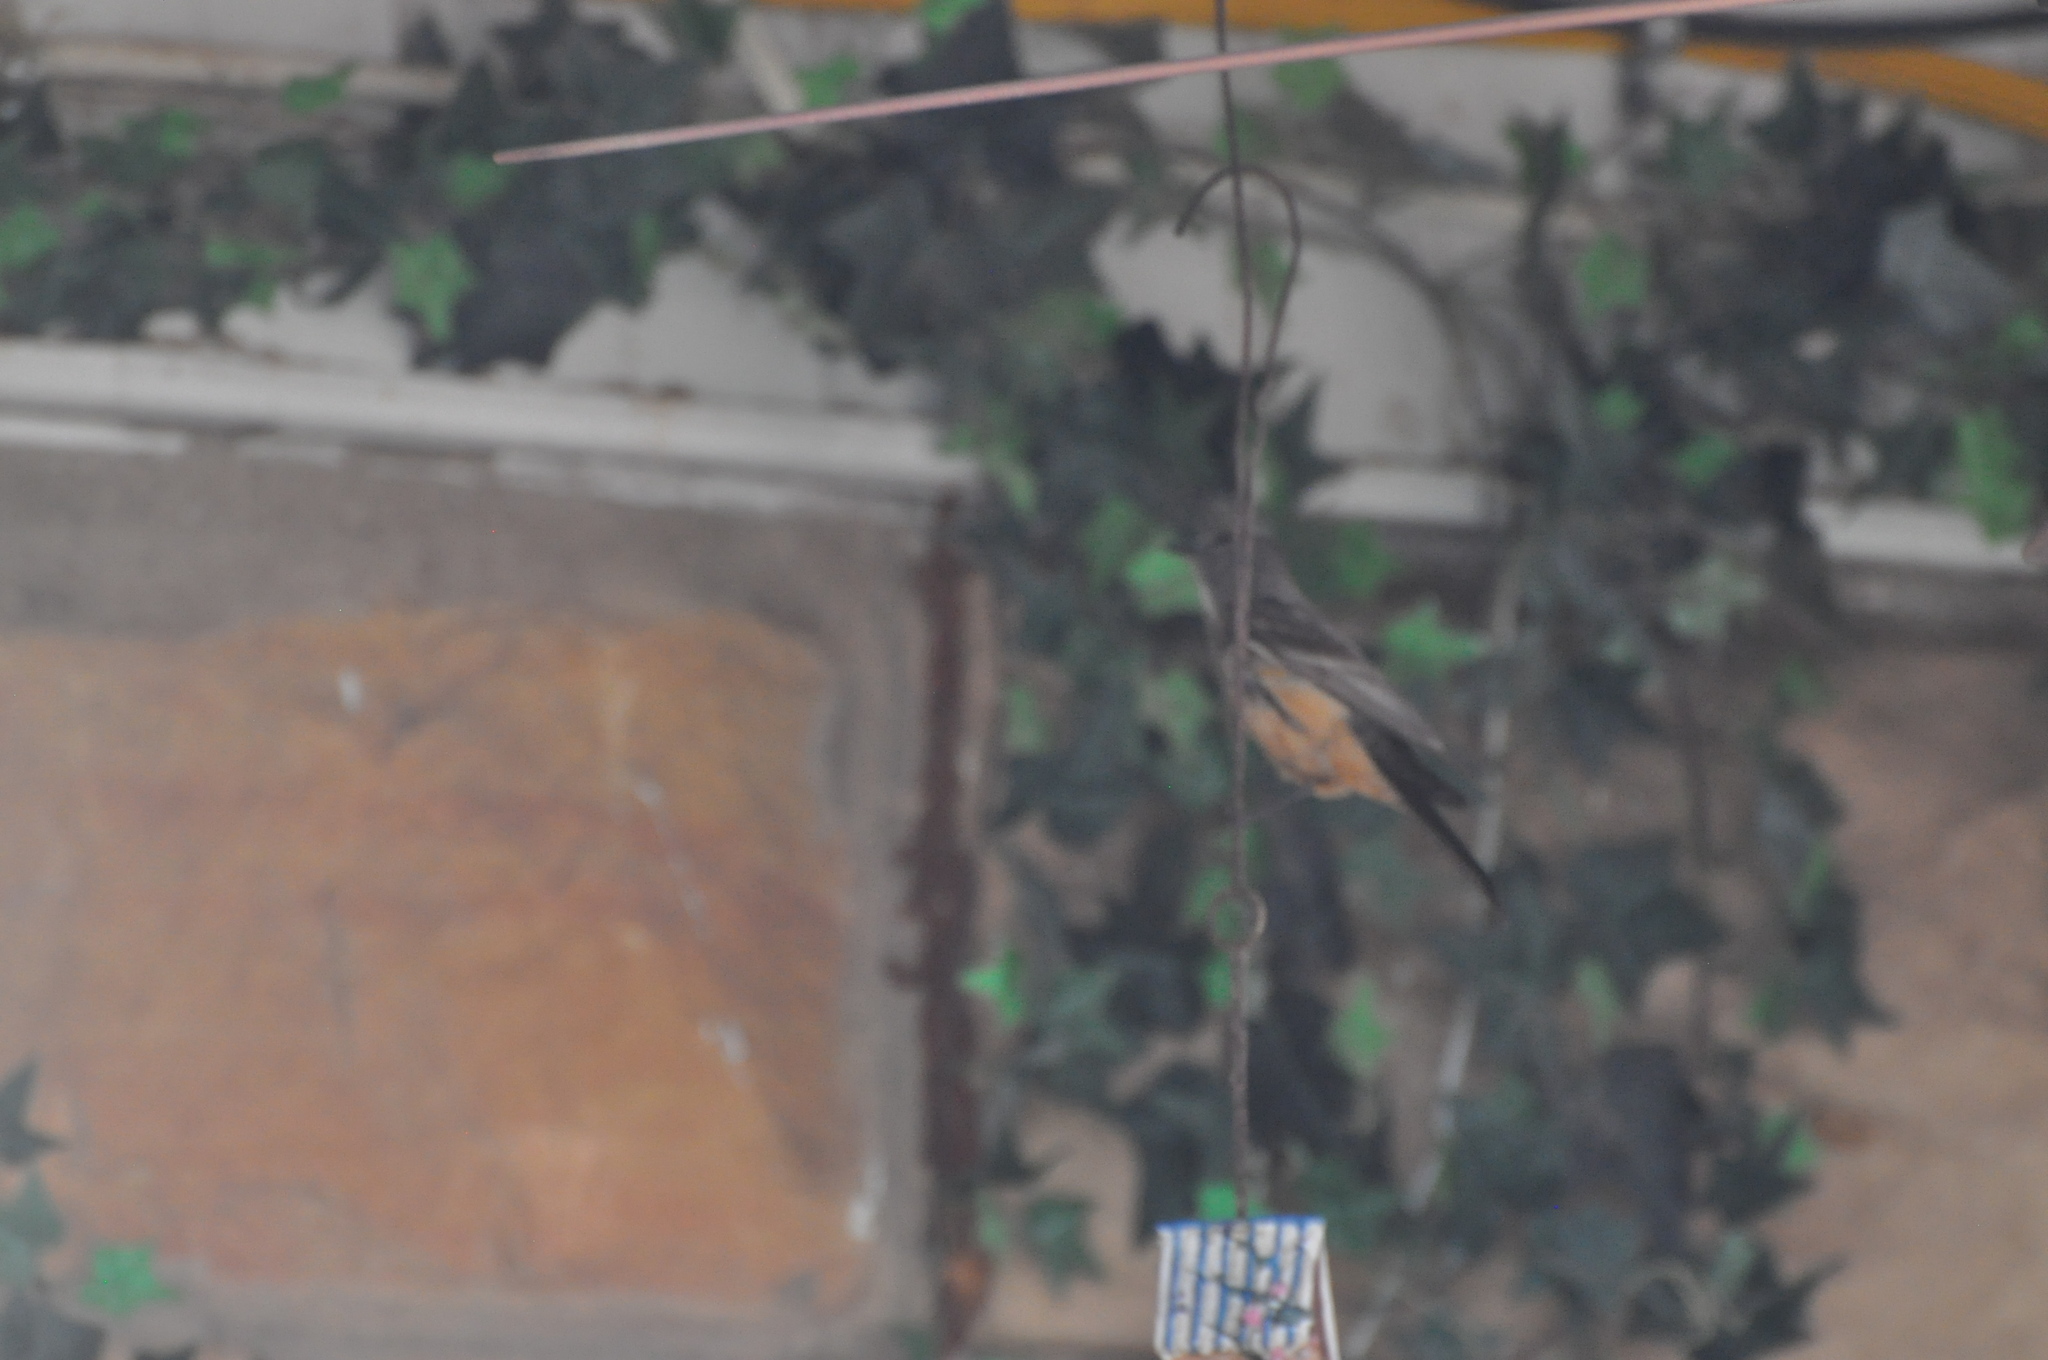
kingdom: Animalia
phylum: Chordata
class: Aves
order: Passeriformes
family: Tyrannidae
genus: Sayornis
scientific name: Sayornis saya
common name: Say's phoebe
